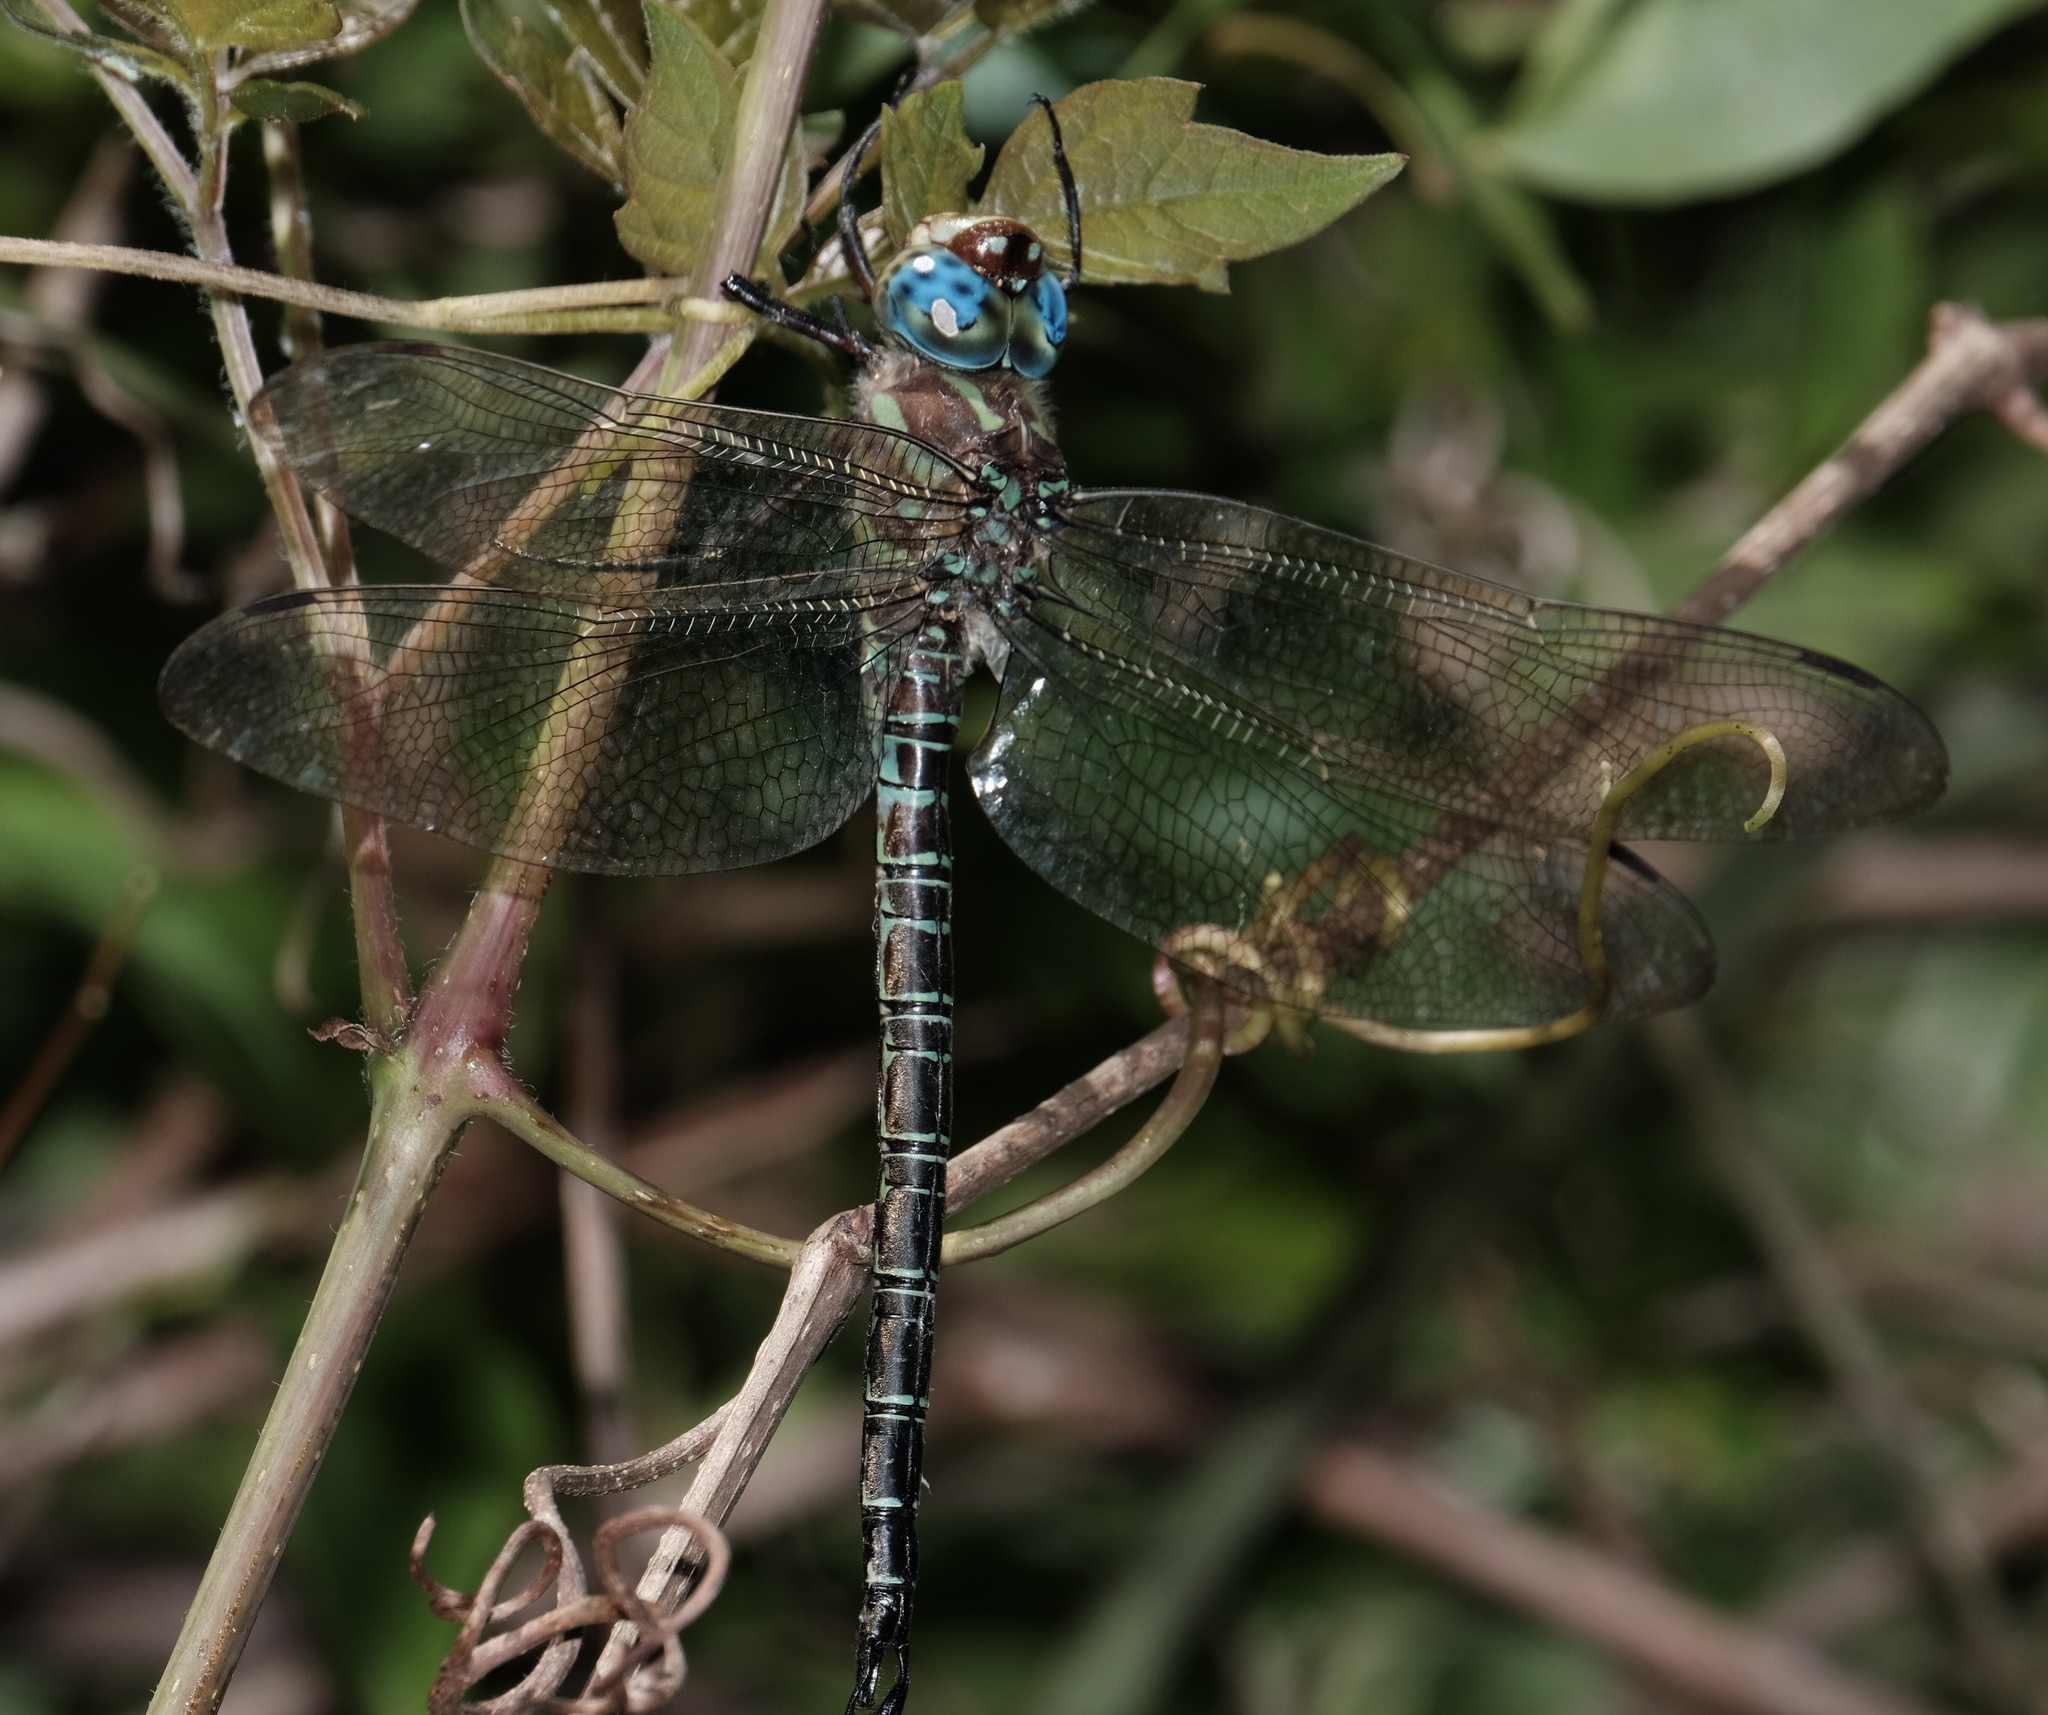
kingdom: Animalia
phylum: Arthropoda
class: Insecta
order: Odonata
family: Aeshnidae
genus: Epiaeschna
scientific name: Epiaeschna heros
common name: Swamp darner
